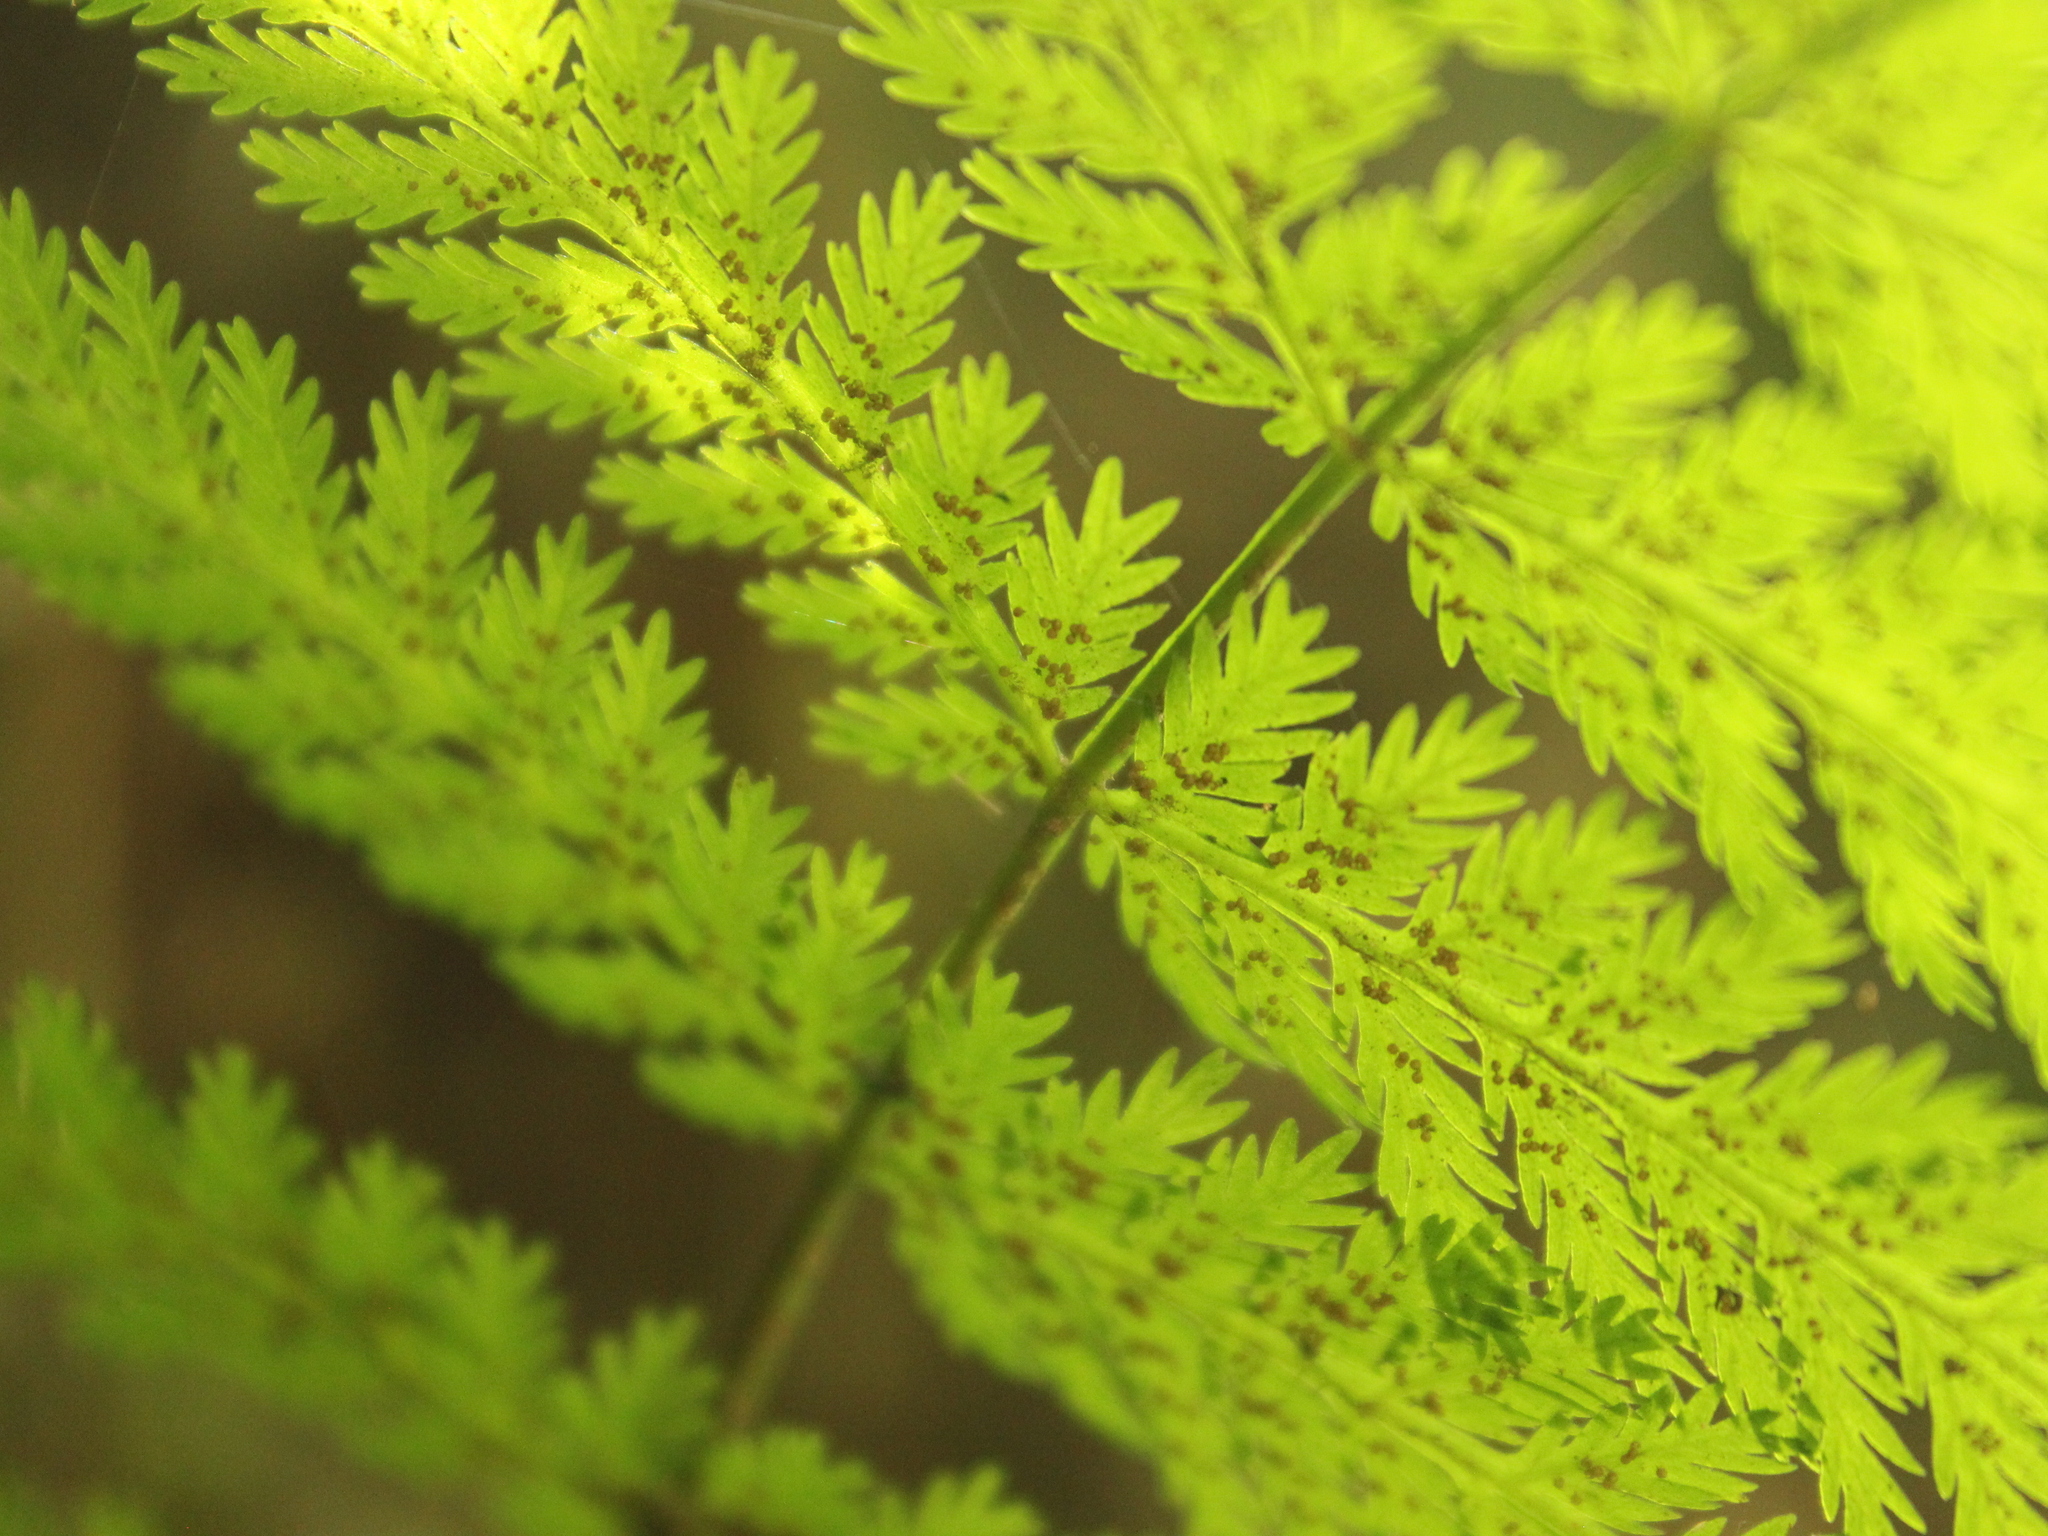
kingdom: Plantae
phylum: Tracheophyta
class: Polypodiopsida
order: Osmundales
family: Osmundaceae
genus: Leptopteris
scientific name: Leptopteris hymenophylloides
